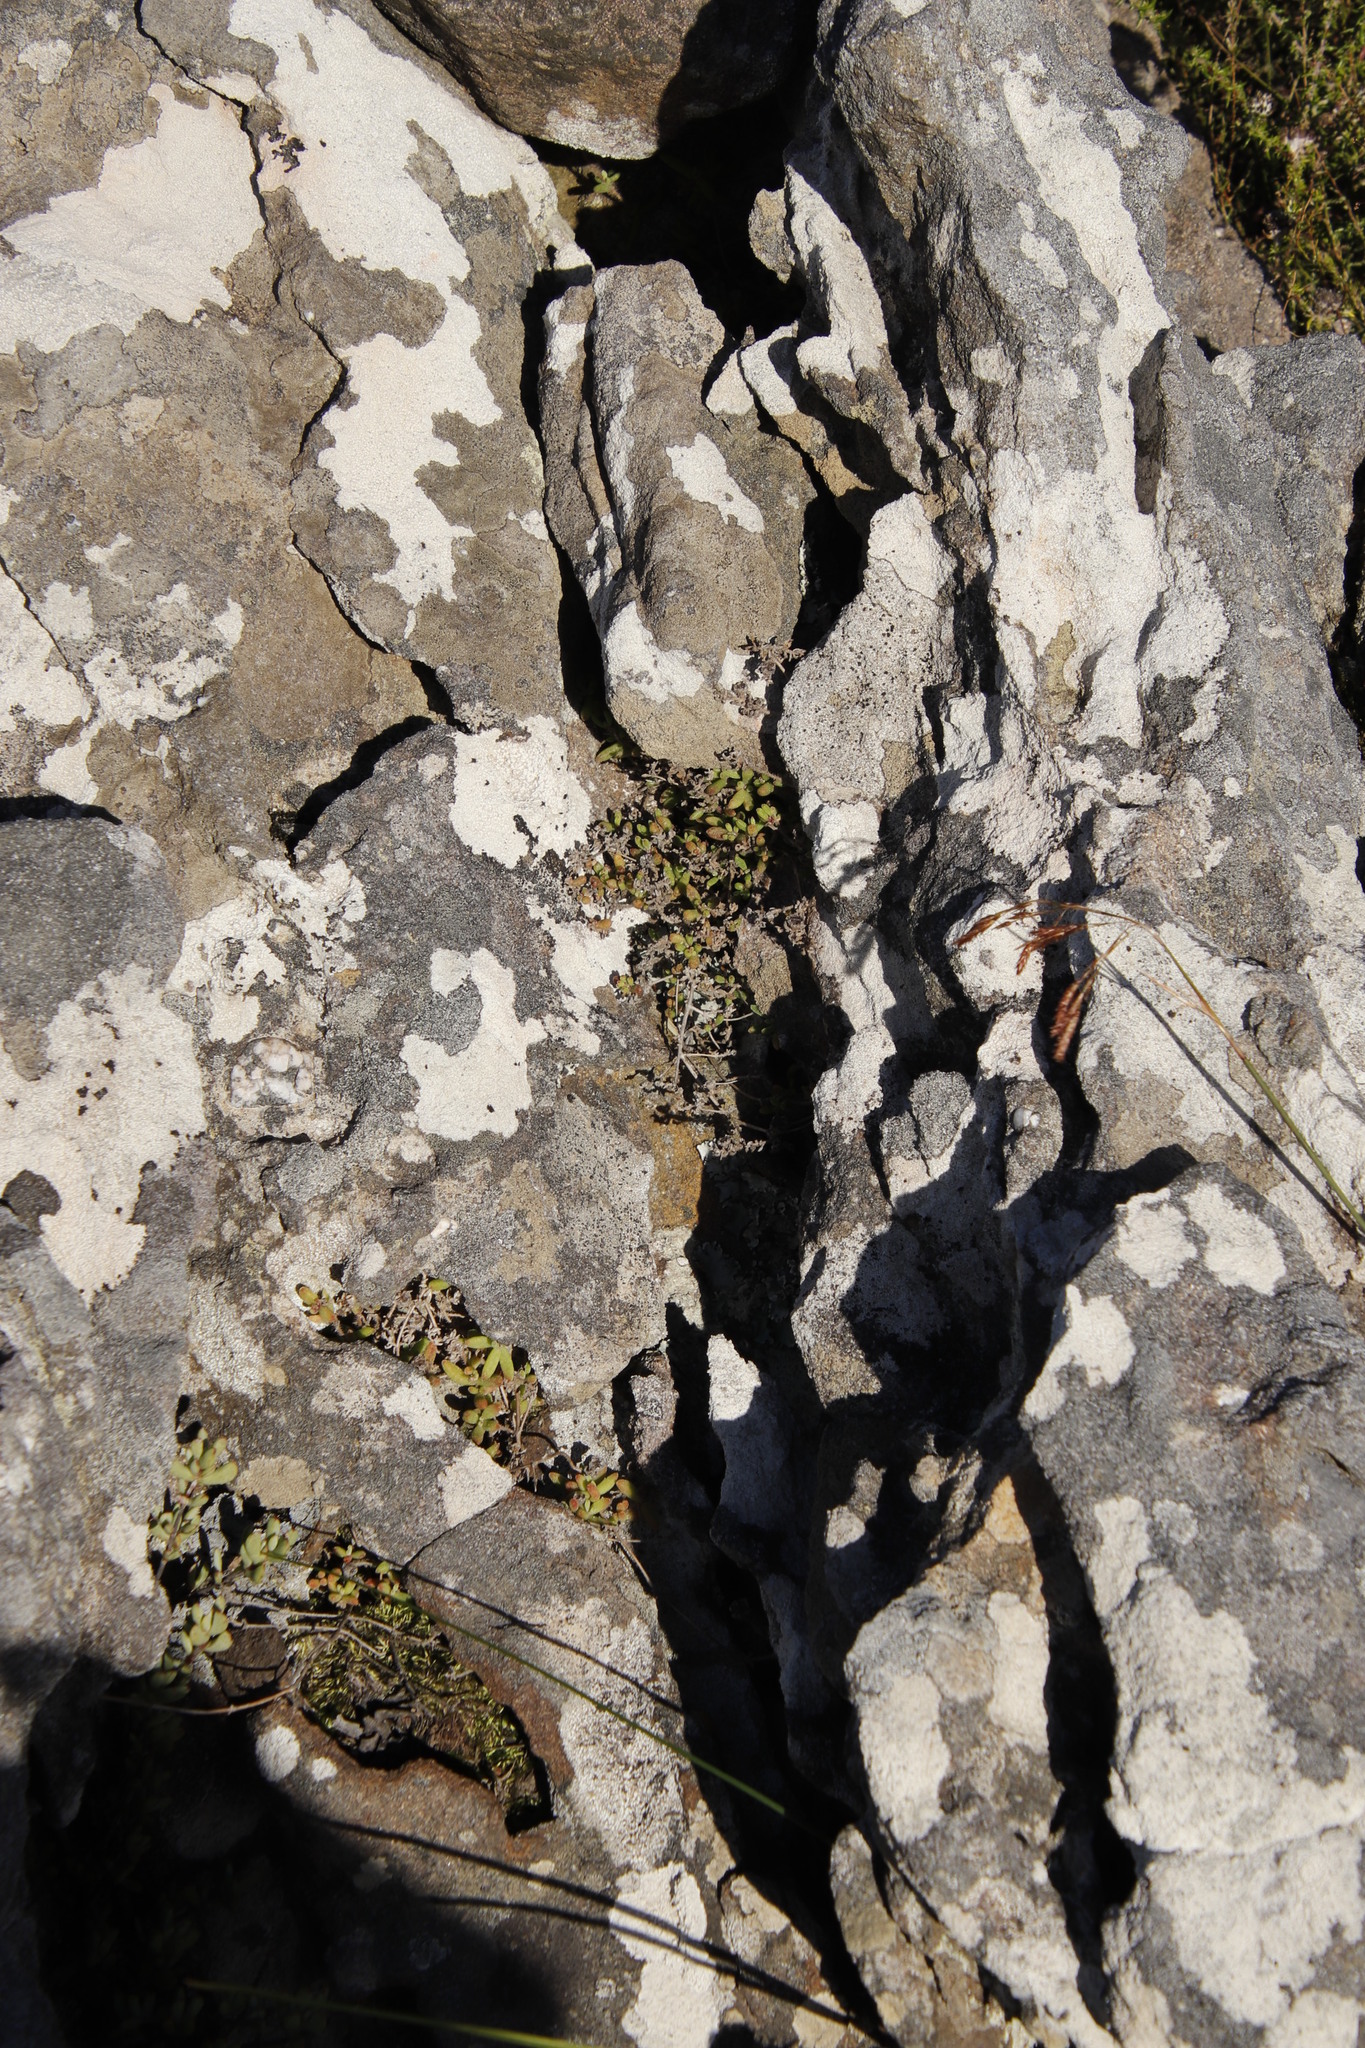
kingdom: Plantae
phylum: Tracheophyta
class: Magnoliopsida
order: Caryophyllales
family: Aizoaceae
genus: Drosanthemum
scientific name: Drosanthemum stokoei
